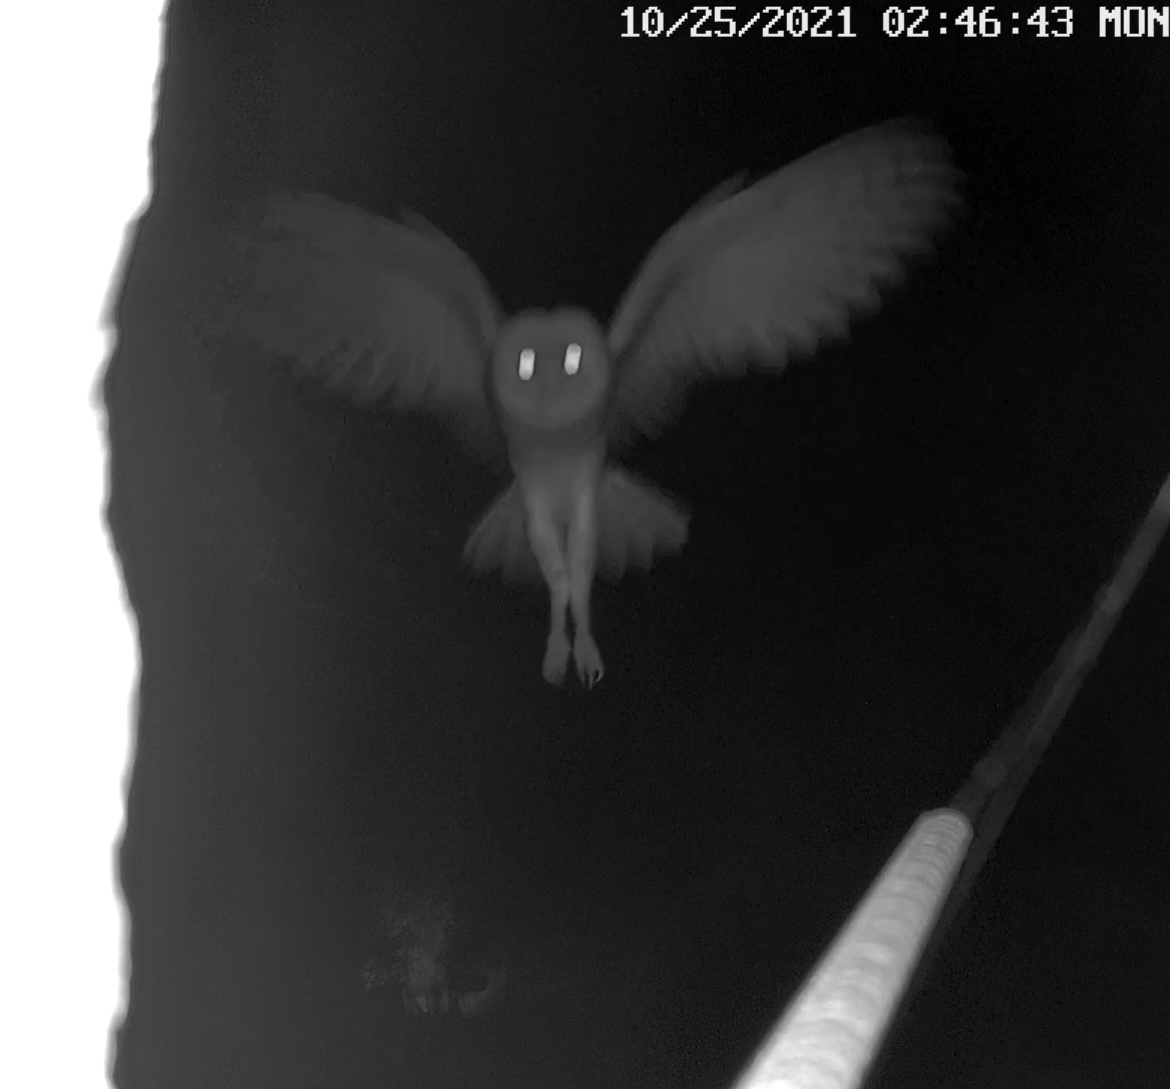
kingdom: Animalia
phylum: Chordata
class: Aves
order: Strigiformes
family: Tytonidae
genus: Tyto
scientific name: Tyto alba
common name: Barn owl
